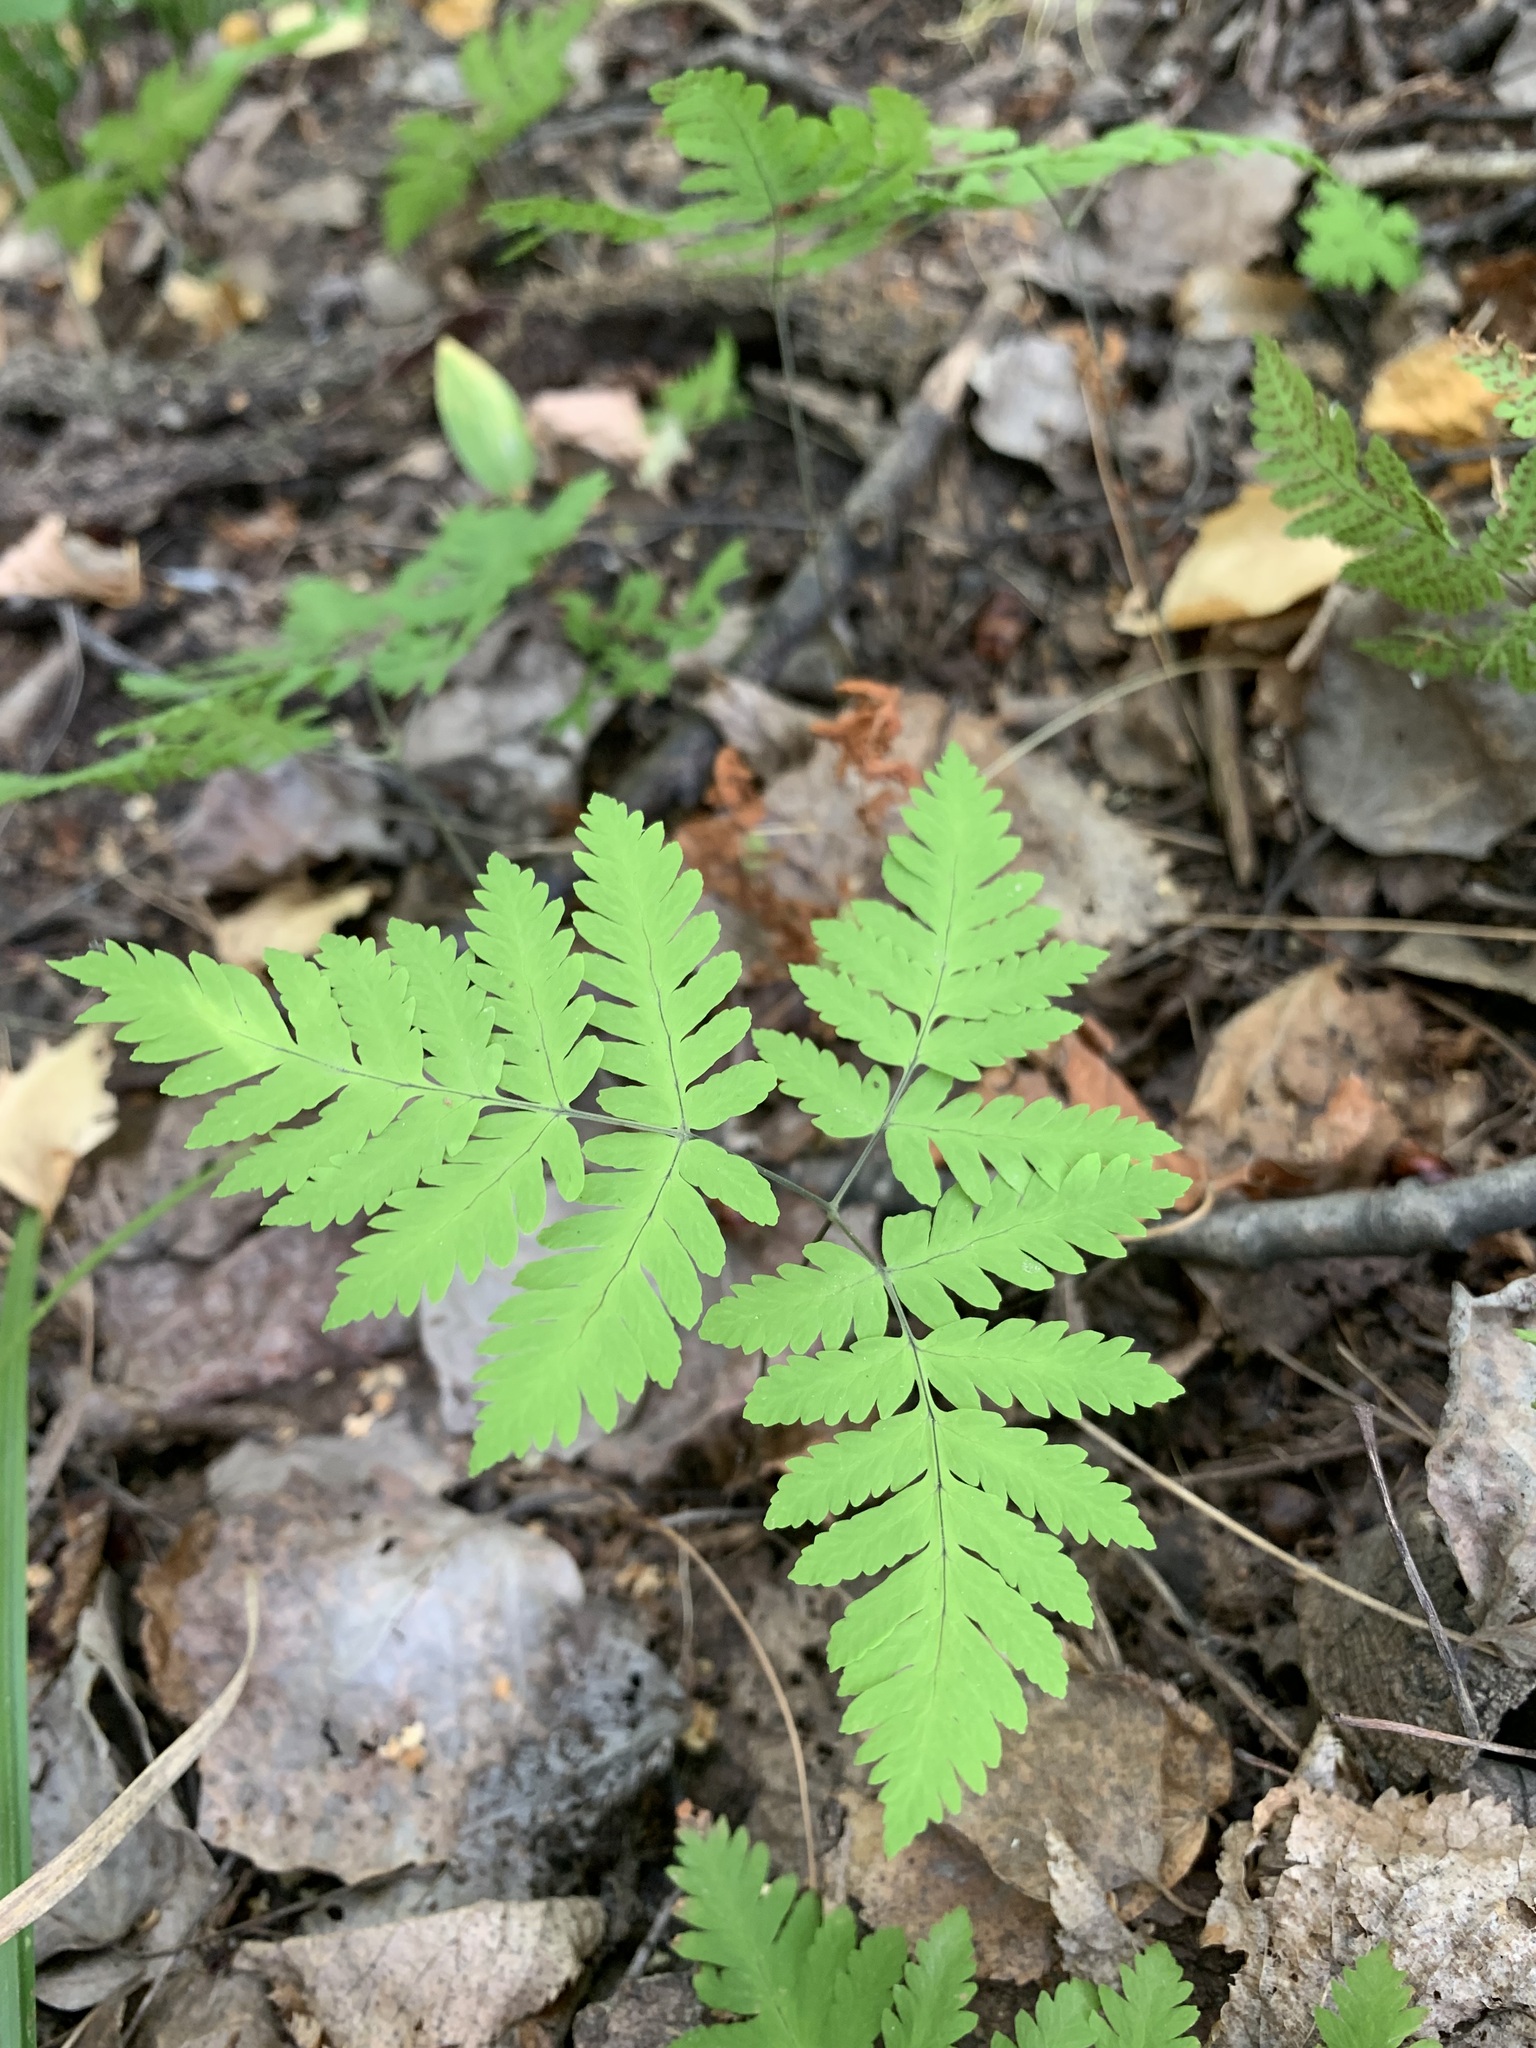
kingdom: Plantae
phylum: Tracheophyta
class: Polypodiopsida
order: Polypodiales
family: Cystopteridaceae
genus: Gymnocarpium
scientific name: Gymnocarpium dryopteris
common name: Oak fern
